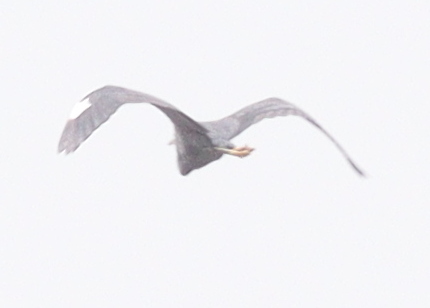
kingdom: Animalia
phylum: Chordata
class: Aves
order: Pelecaniformes
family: Ardeidae
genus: Egretta
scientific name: Egretta gularis
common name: Western reef-heron
